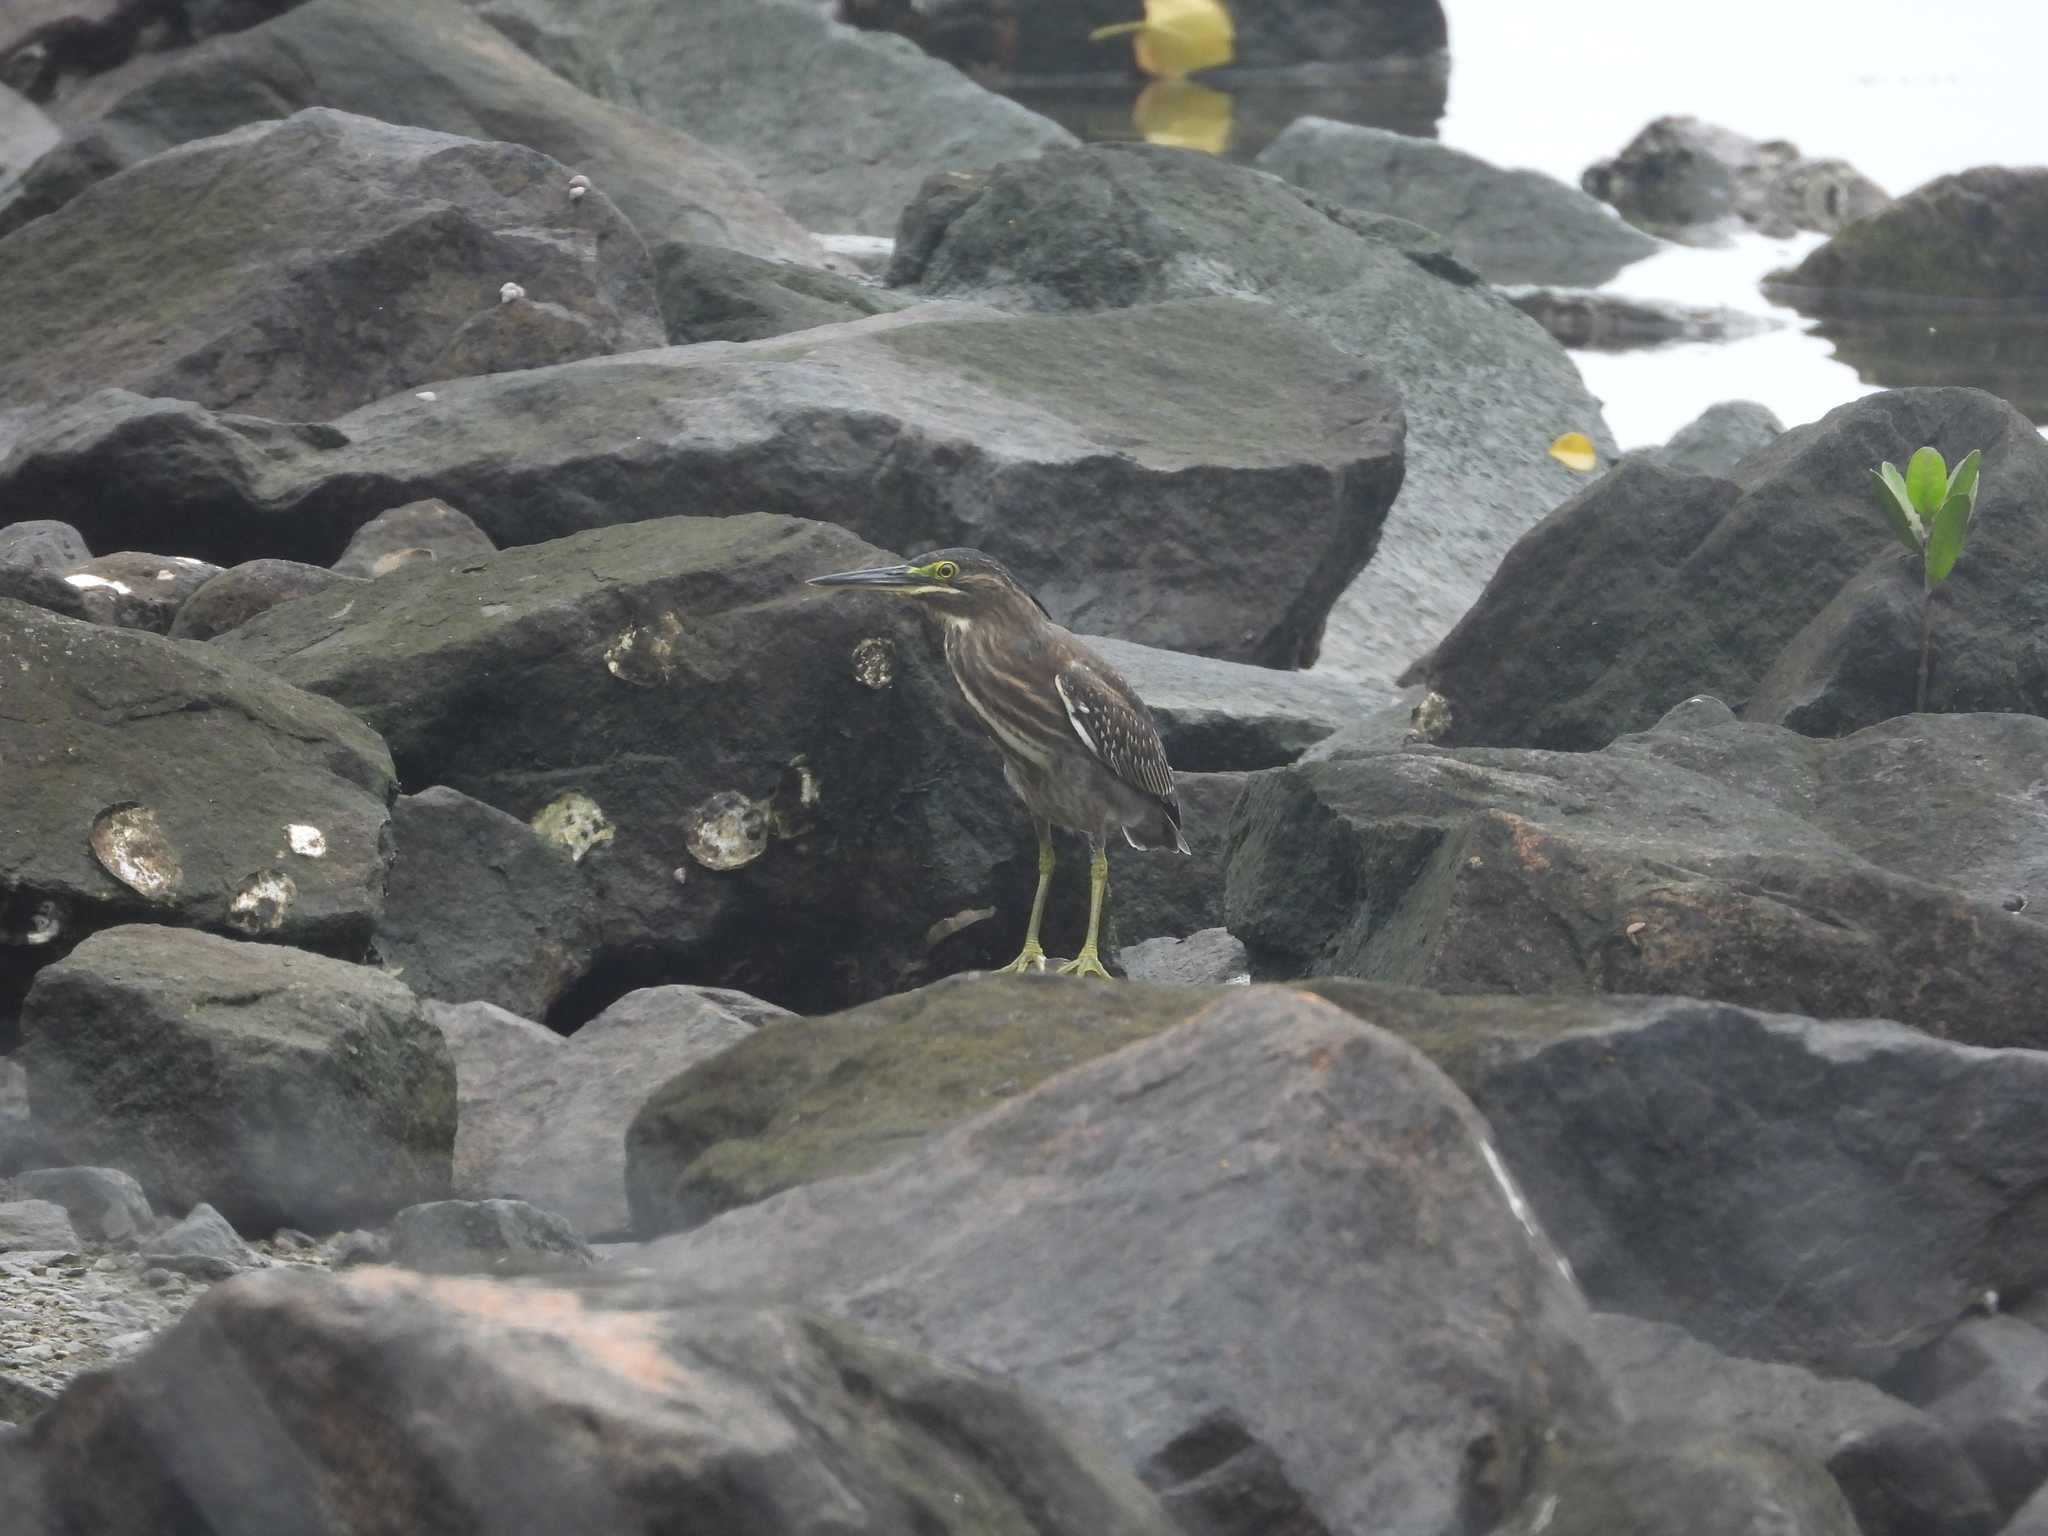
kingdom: Animalia
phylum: Chordata
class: Aves
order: Pelecaniformes
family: Ardeidae
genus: Butorides
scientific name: Butorides striata
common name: Striated heron
